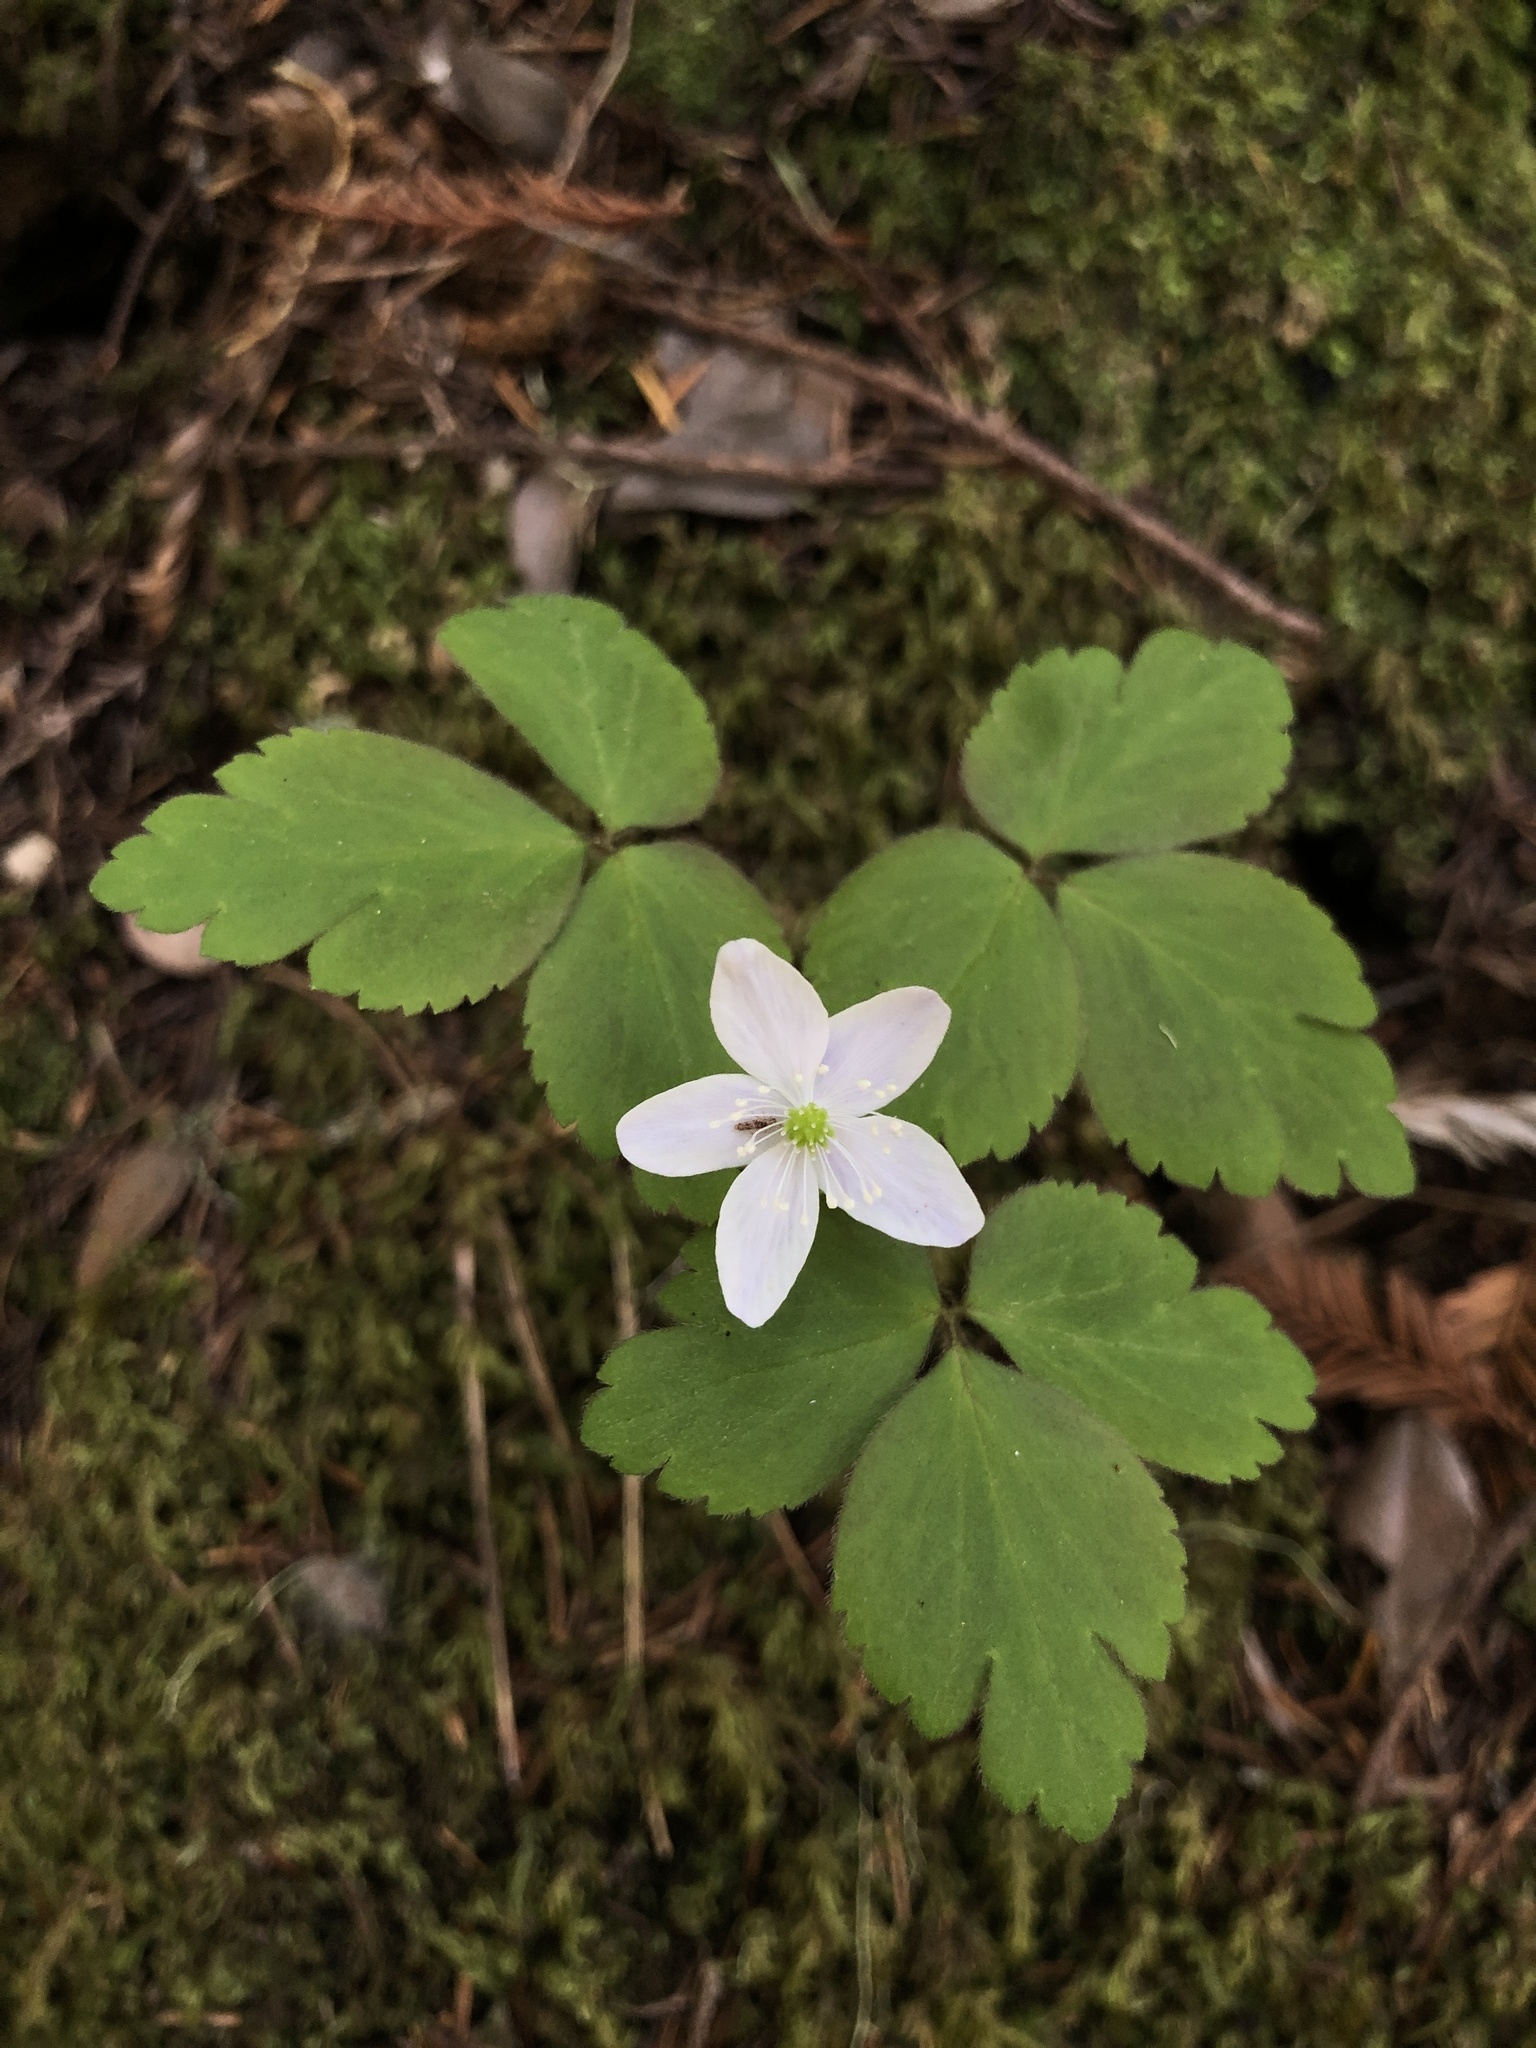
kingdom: Plantae
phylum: Tracheophyta
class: Magnoliopsida
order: Ranunculales
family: Ranunculaceae
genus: Anemone
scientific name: Anemone
